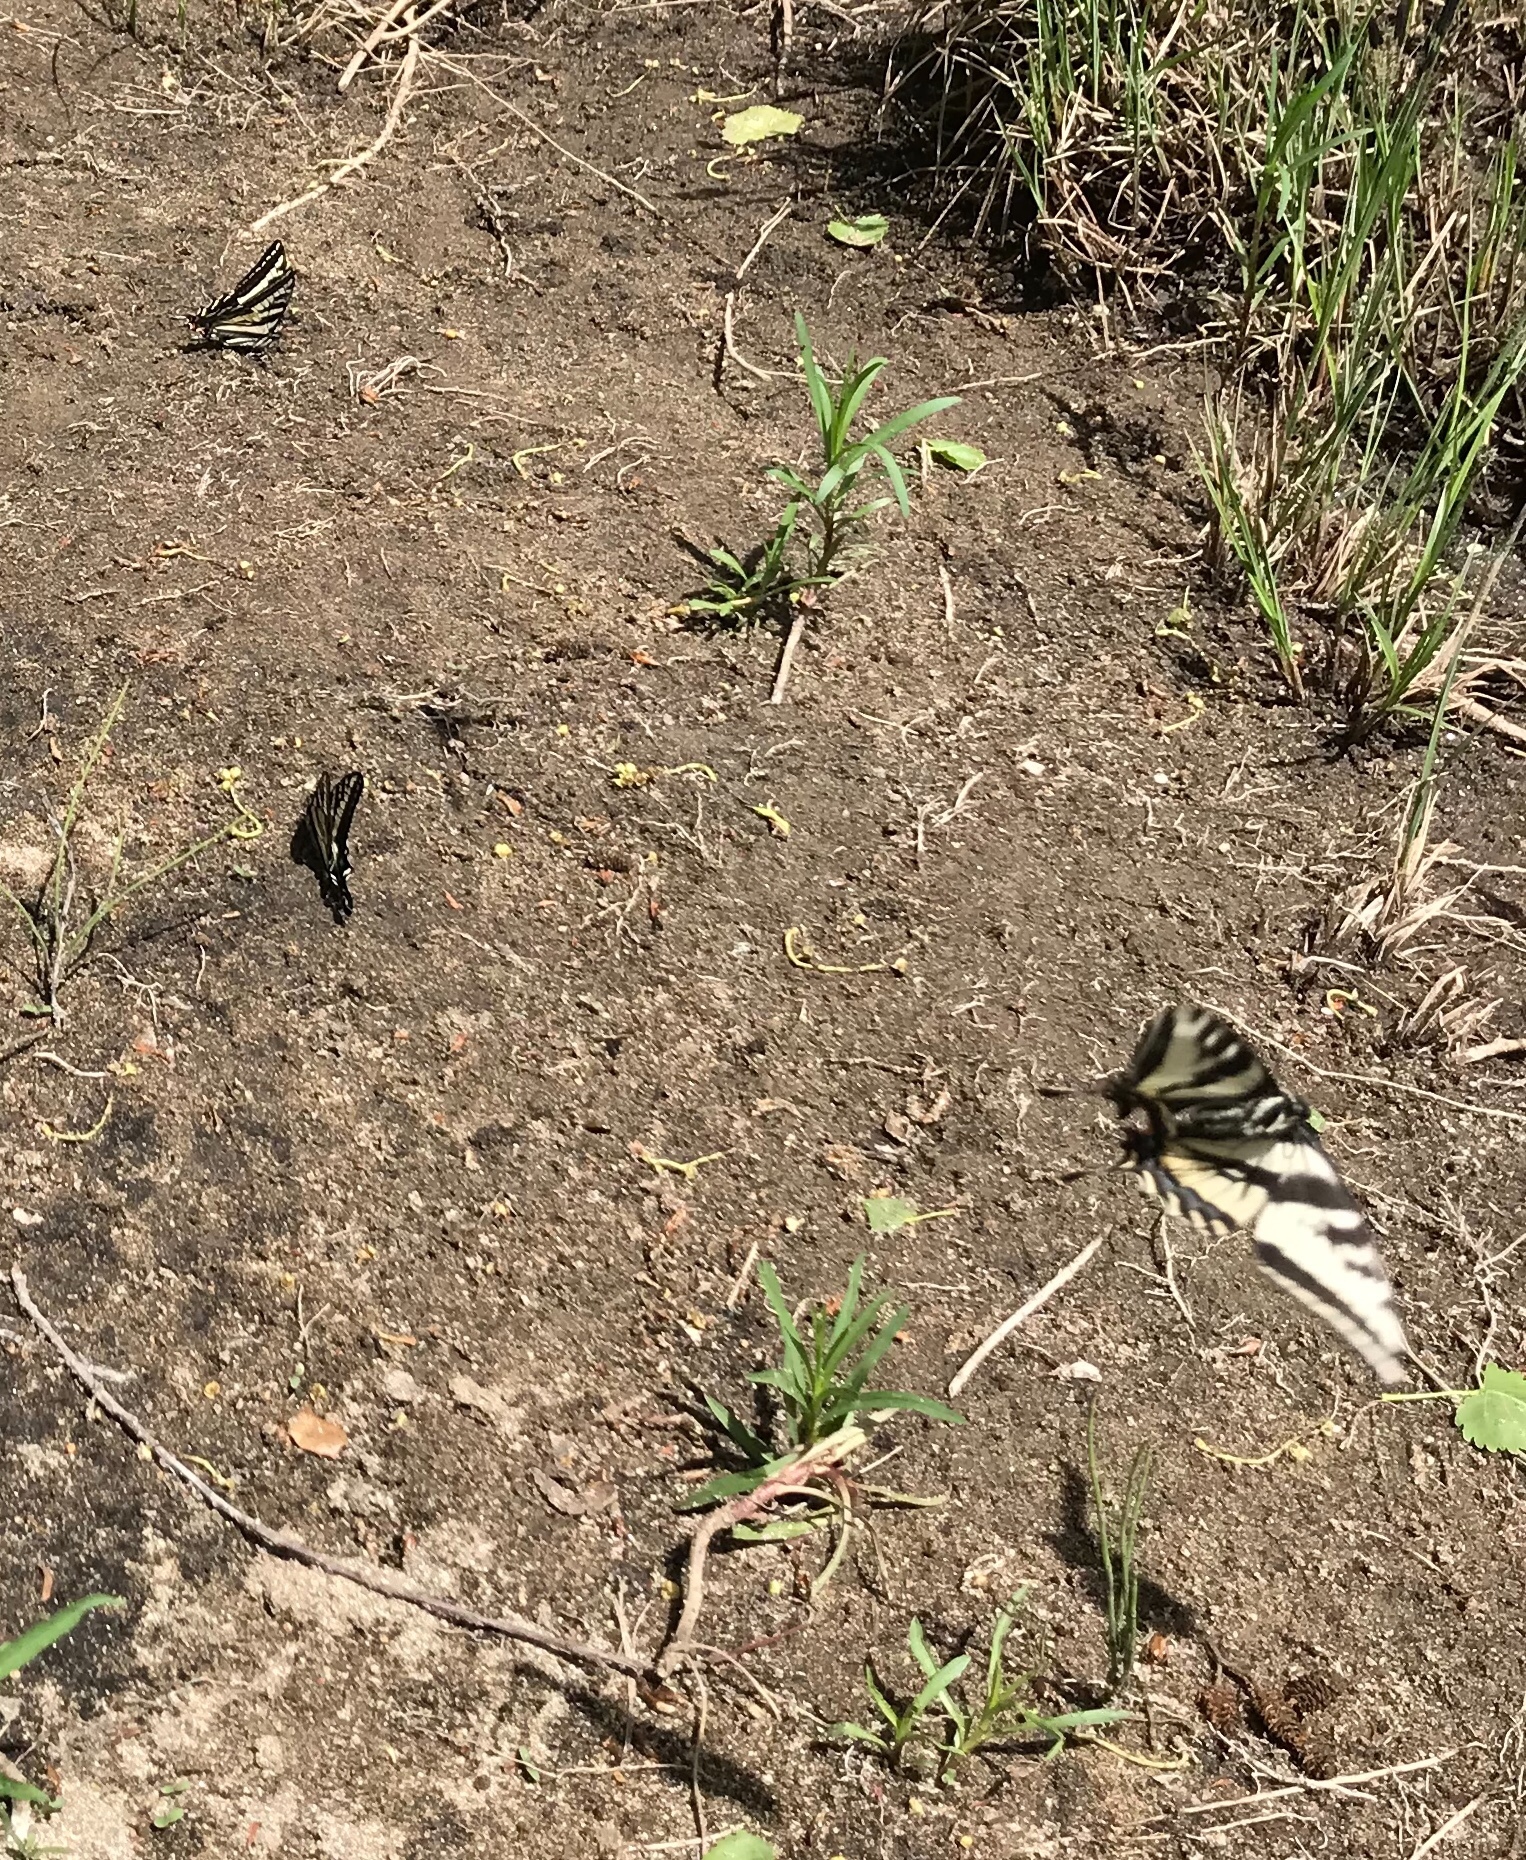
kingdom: Animalia
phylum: Arthropoda
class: Insecta
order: Lepidoptera
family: Papilionidae
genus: Papilio
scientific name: Papilio eurymedon
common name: Pale tiger swallowtail
